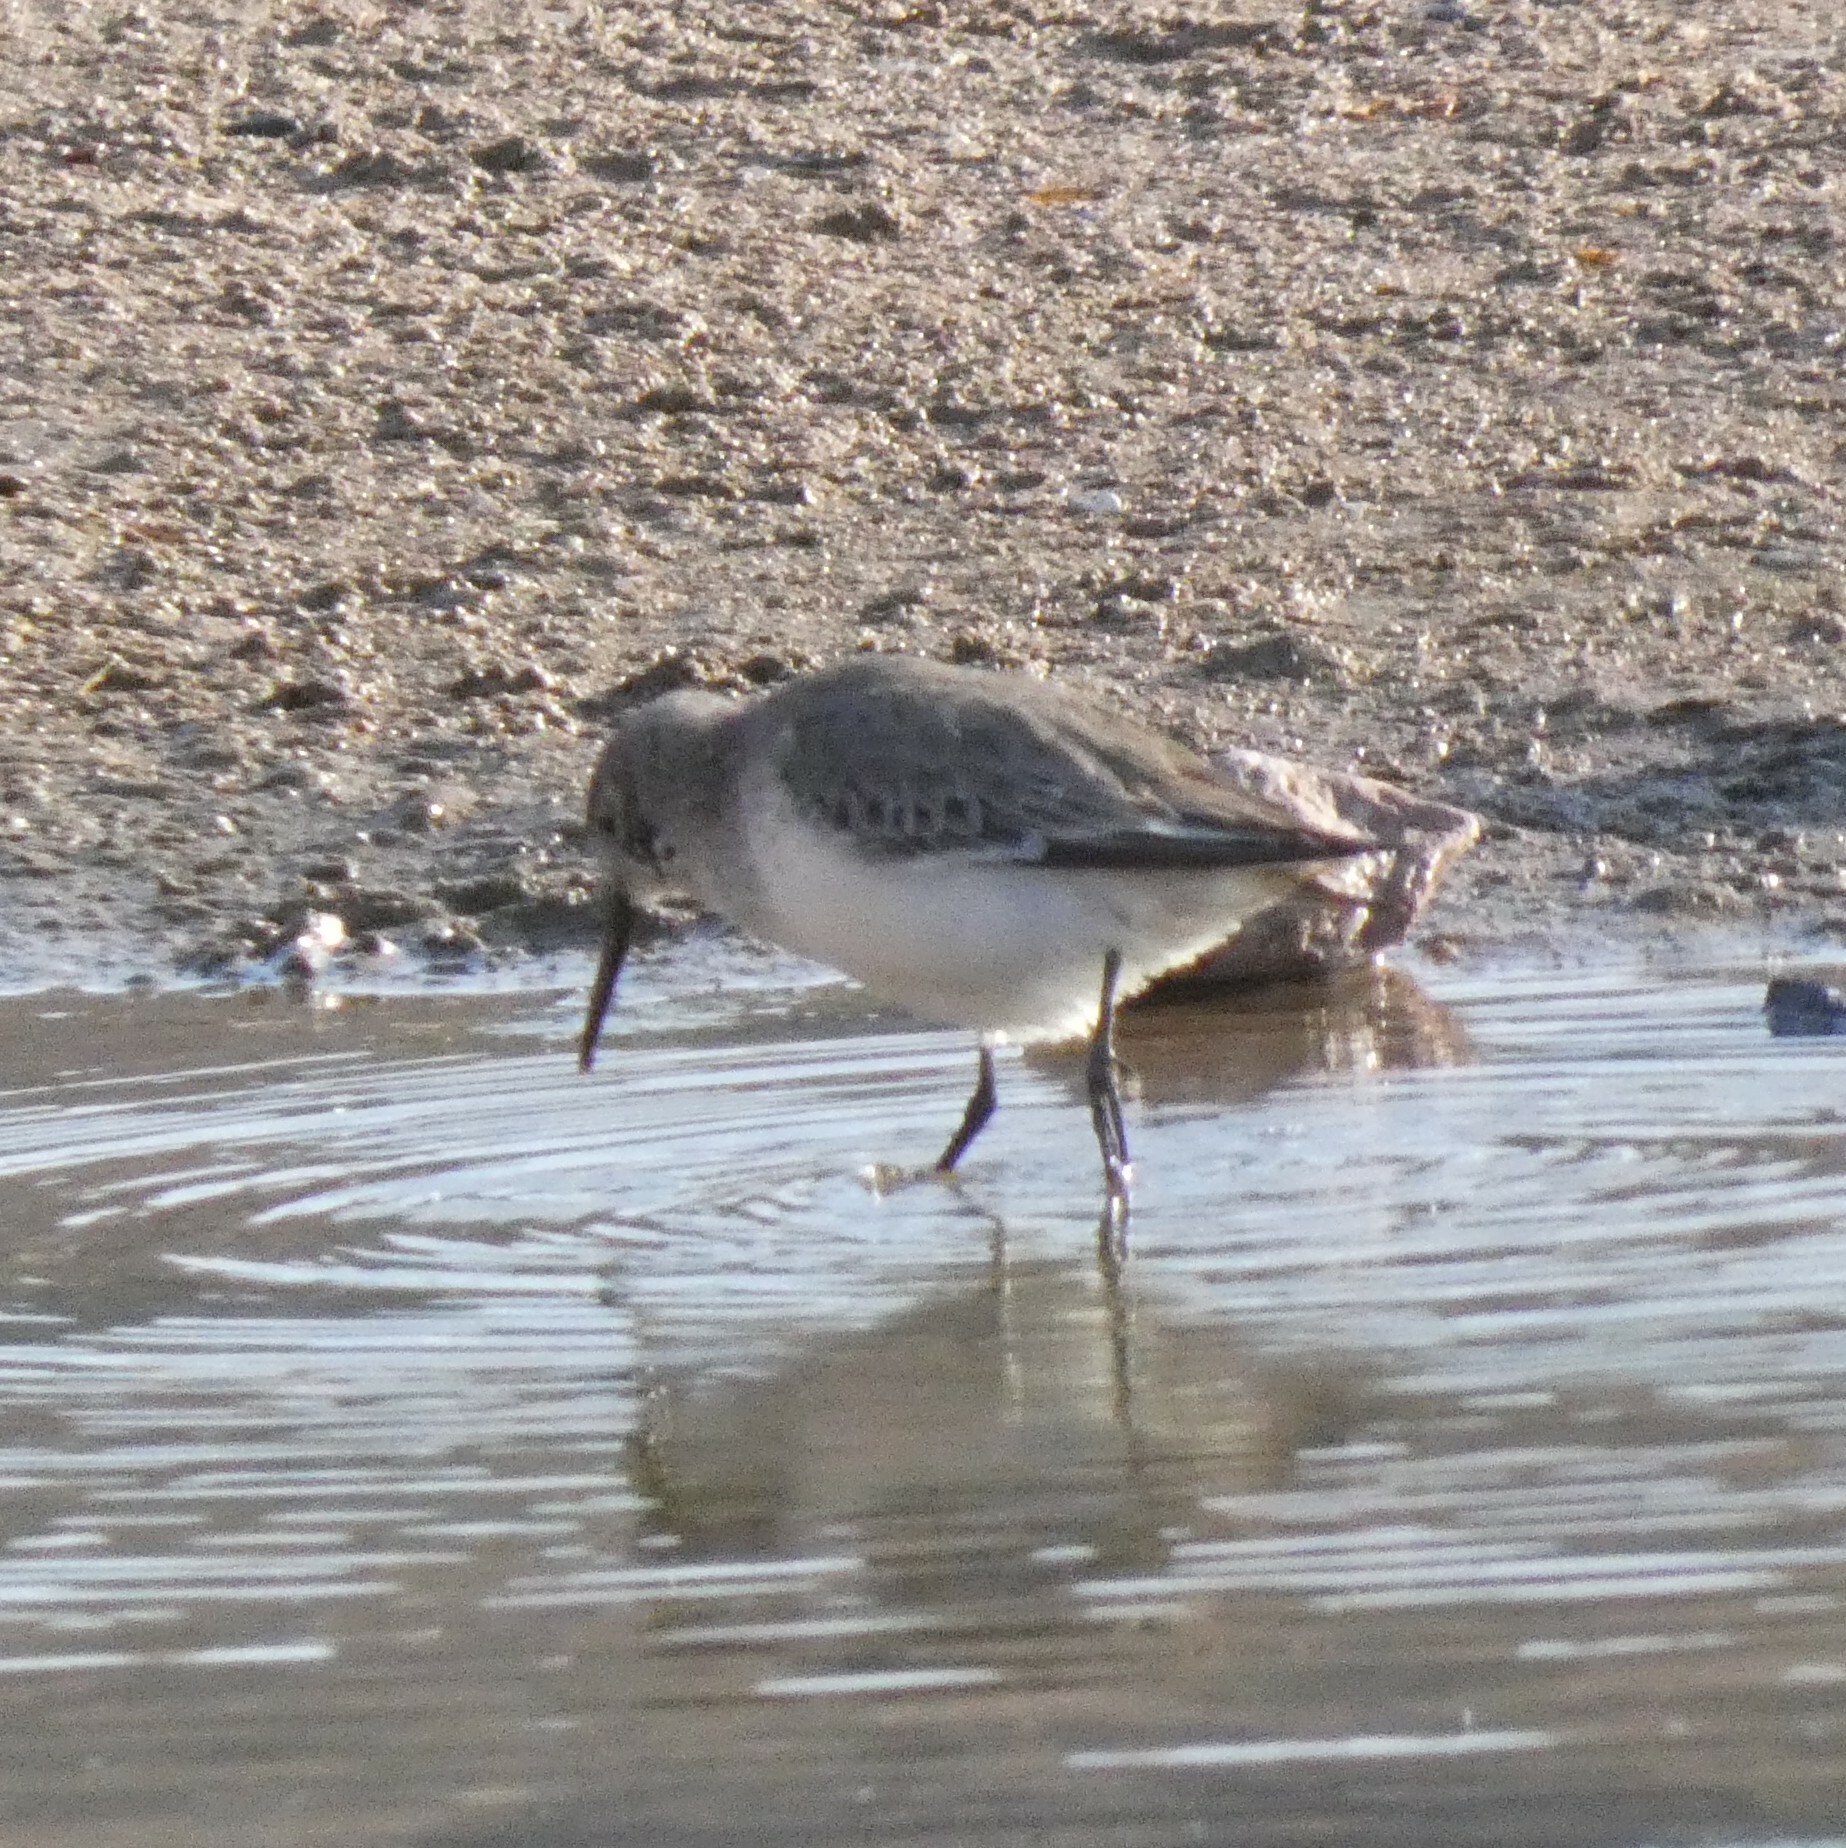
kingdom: Animalia
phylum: Chordata
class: Aves
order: Charadriiformes
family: Scolopacidae
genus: Calidris
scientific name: Calidris alpina
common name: Dunlin
